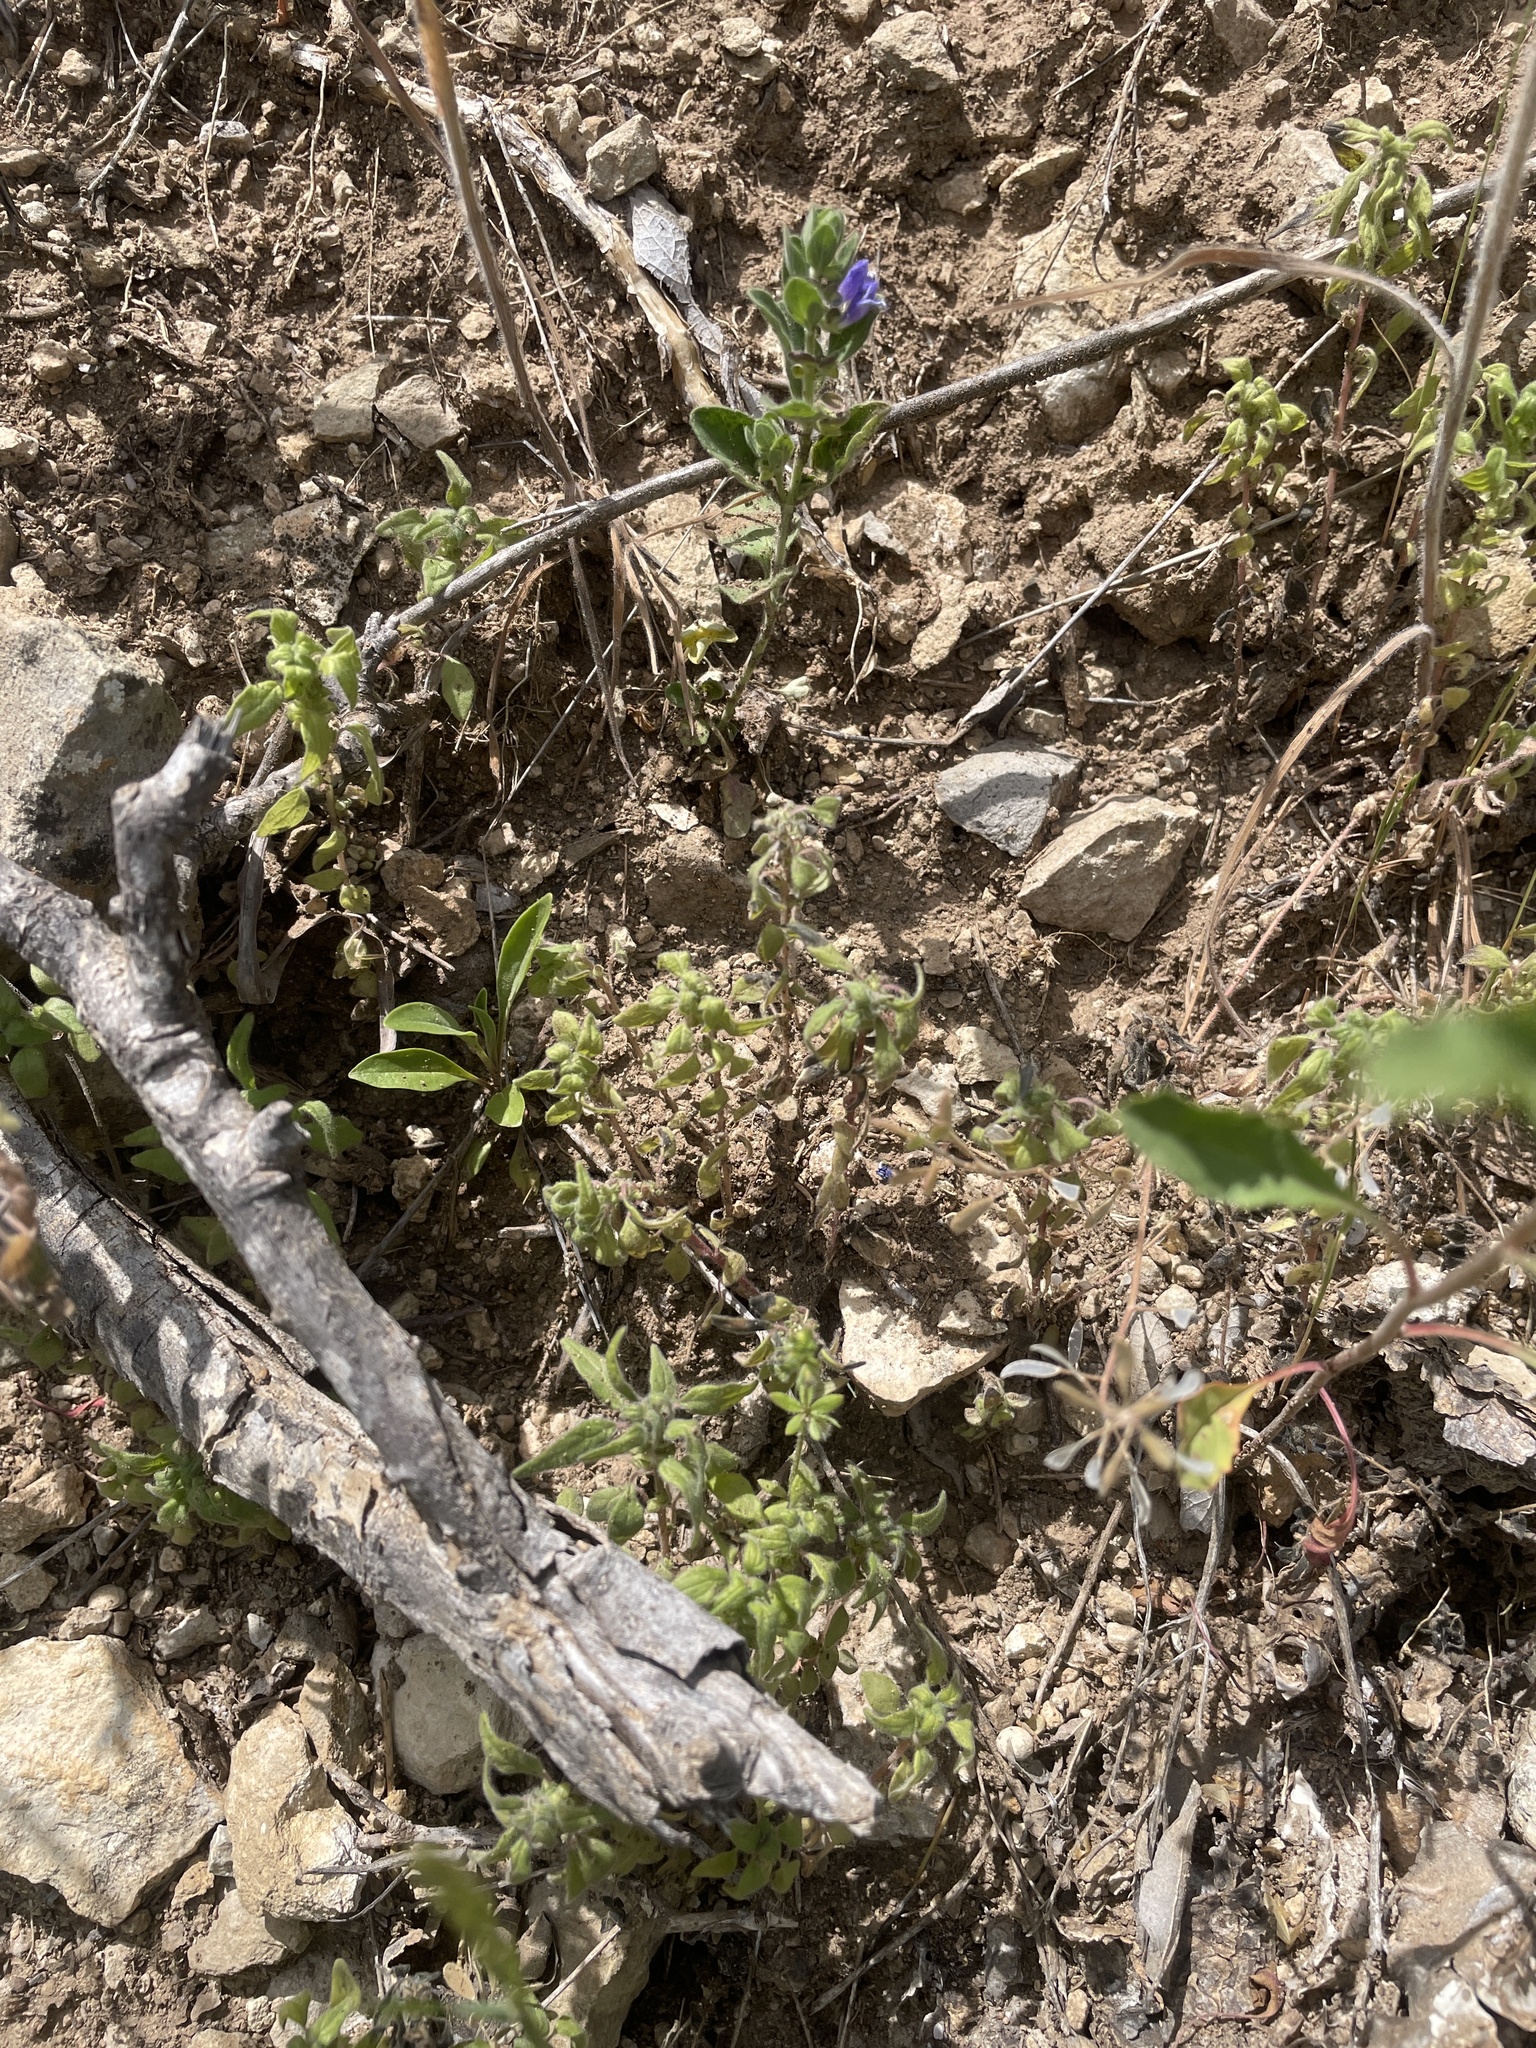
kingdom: Plantae
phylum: Tracheophyta
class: Magnoliopsida
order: Rosales
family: Urticaceae
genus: Parietaria
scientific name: Parietaria pensylvanica
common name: Pennsylvania pellitory
